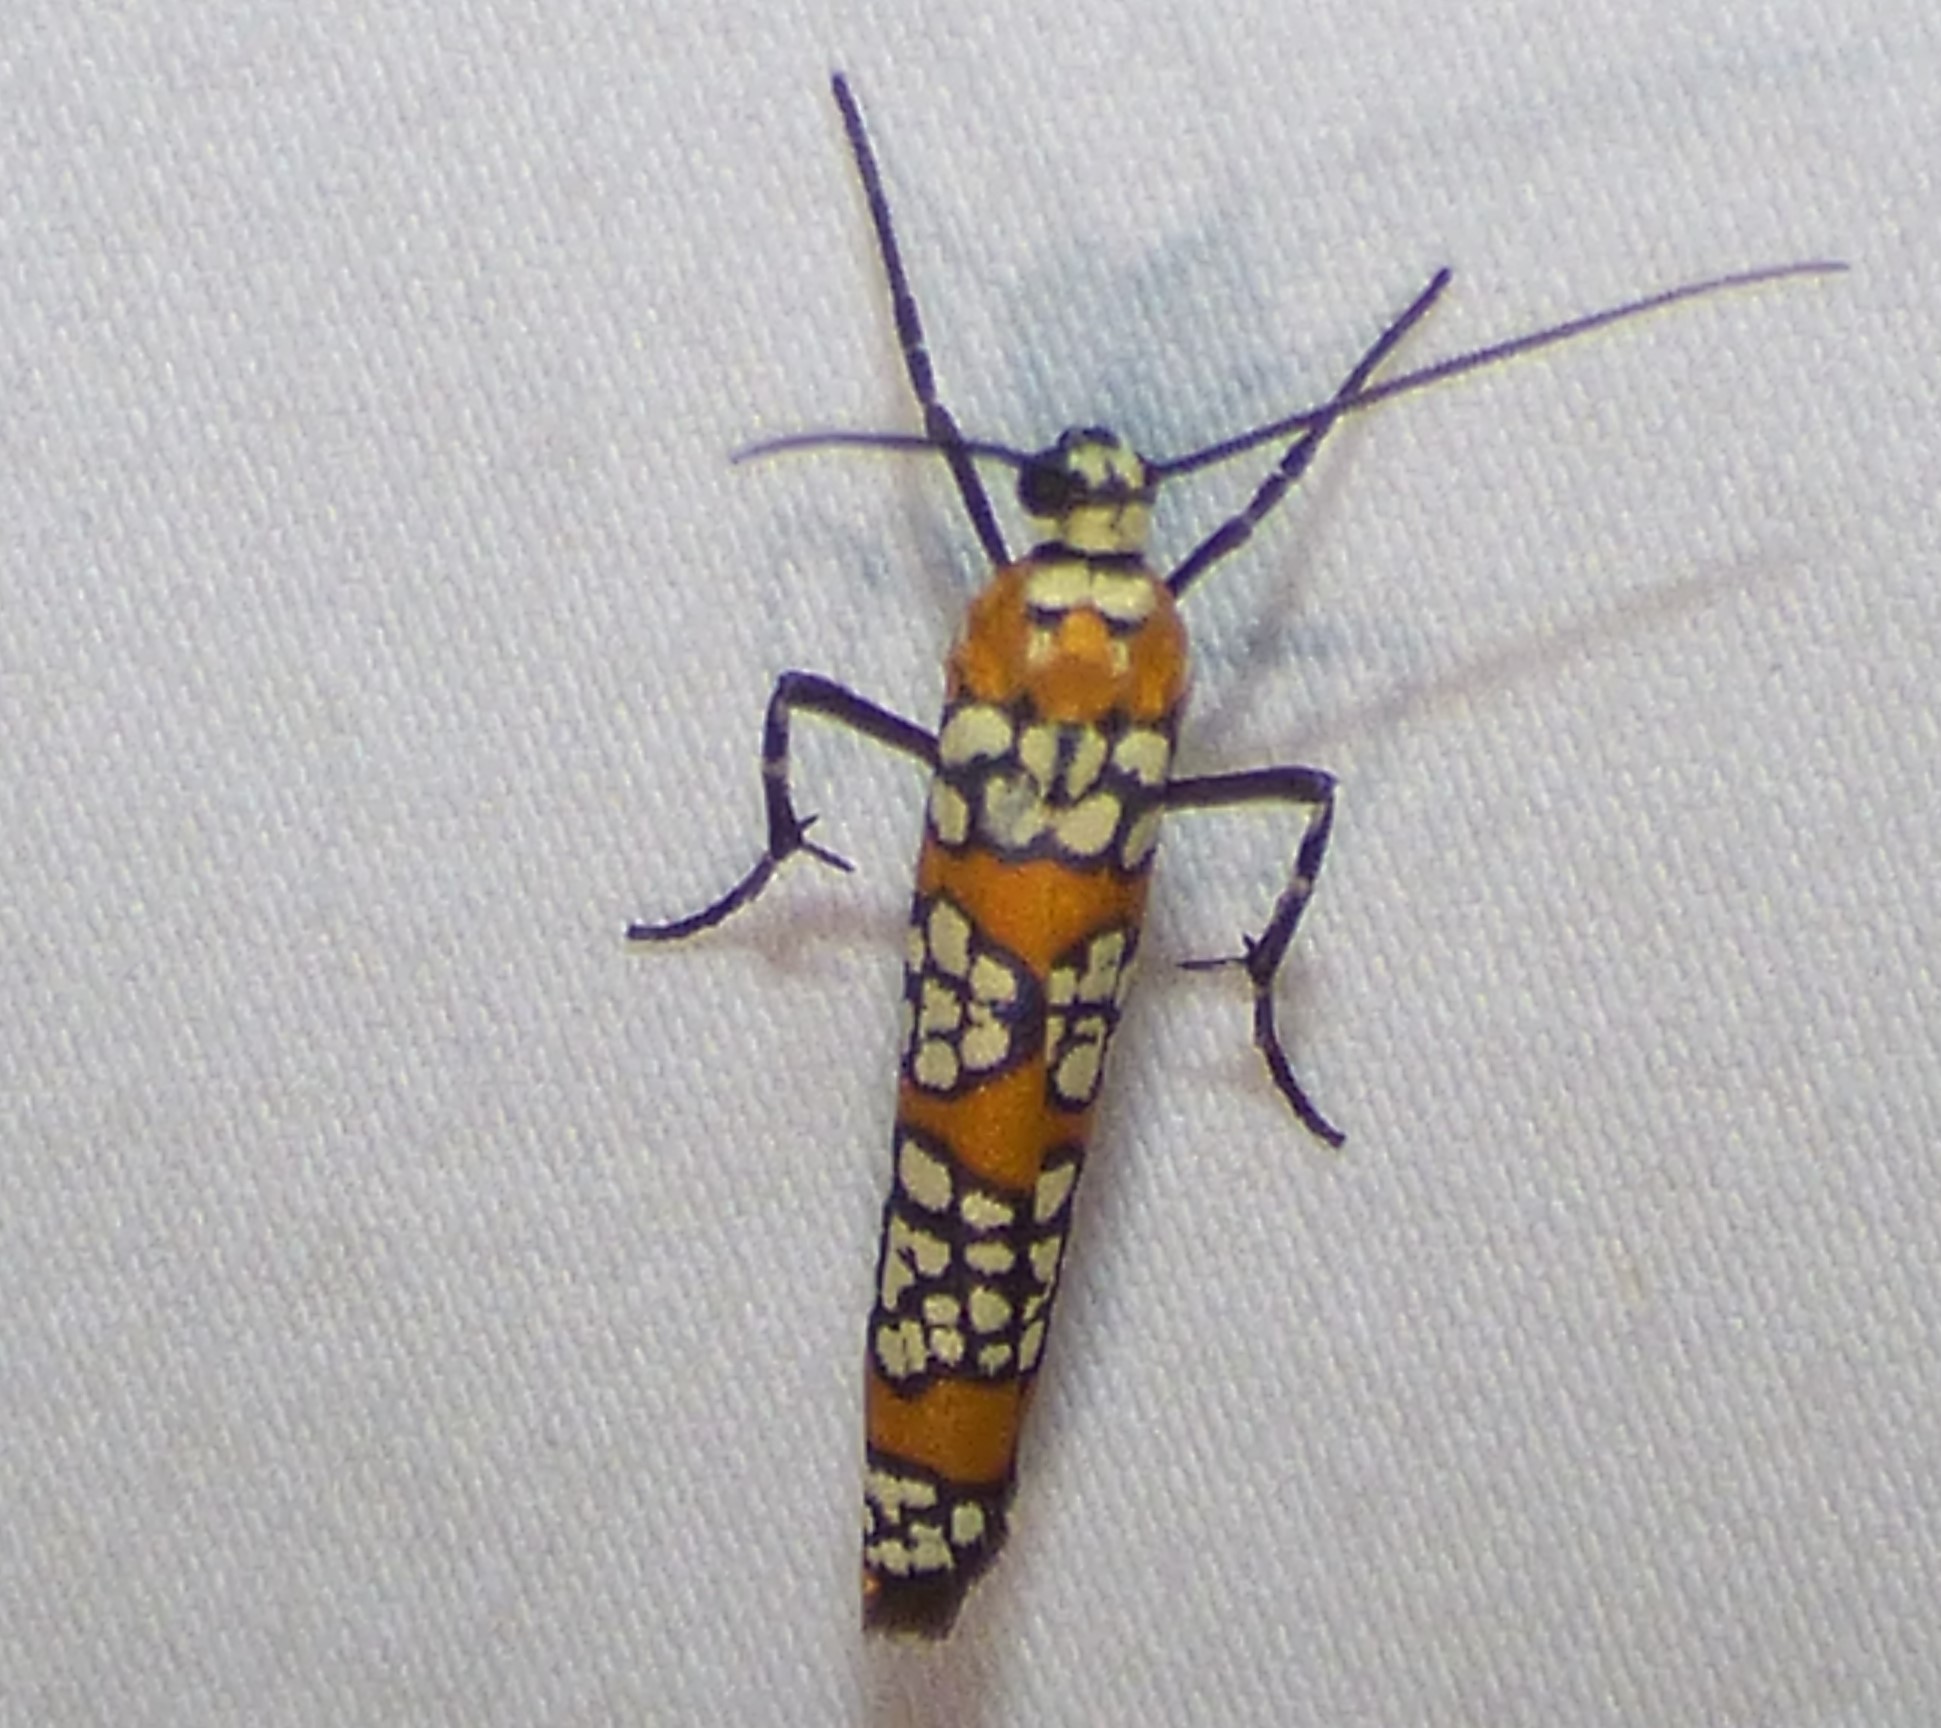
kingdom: Animalia
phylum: Arthropoda
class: Insecta
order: Lepidoptera
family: Attevidae
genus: Atteva
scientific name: Atteva punctella
